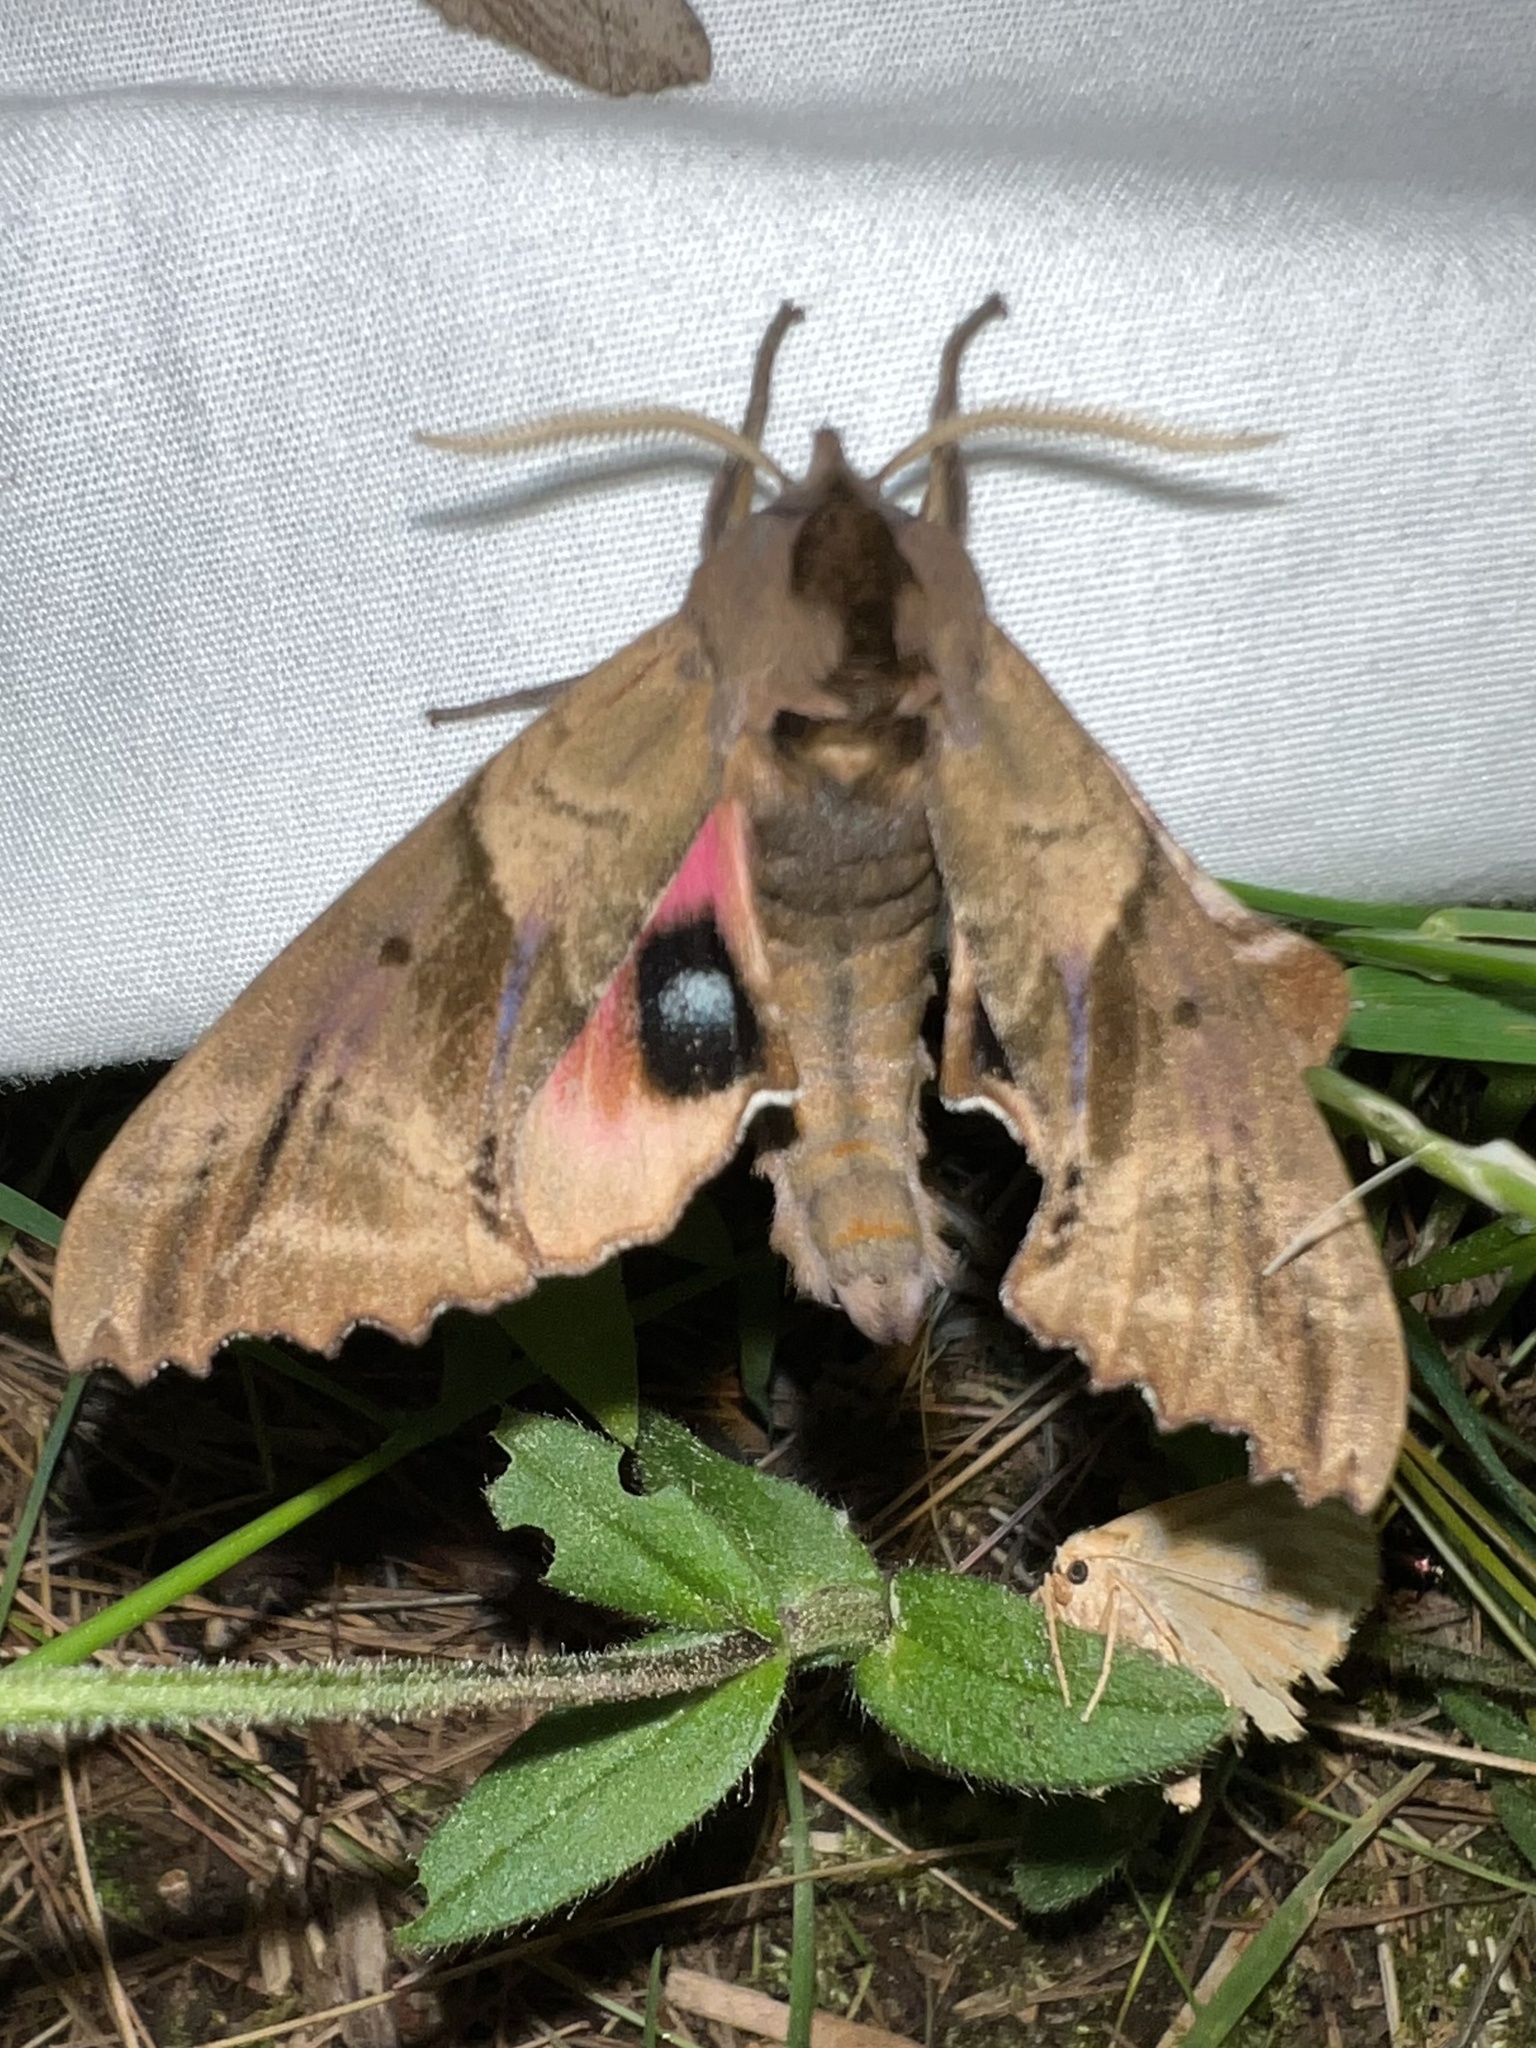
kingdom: Animalia
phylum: Arthropoda
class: Insecta
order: Lepidoptera
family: Sphingidae
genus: Paonias
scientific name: Paonias excaecata
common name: Blind-eyed sphinx
